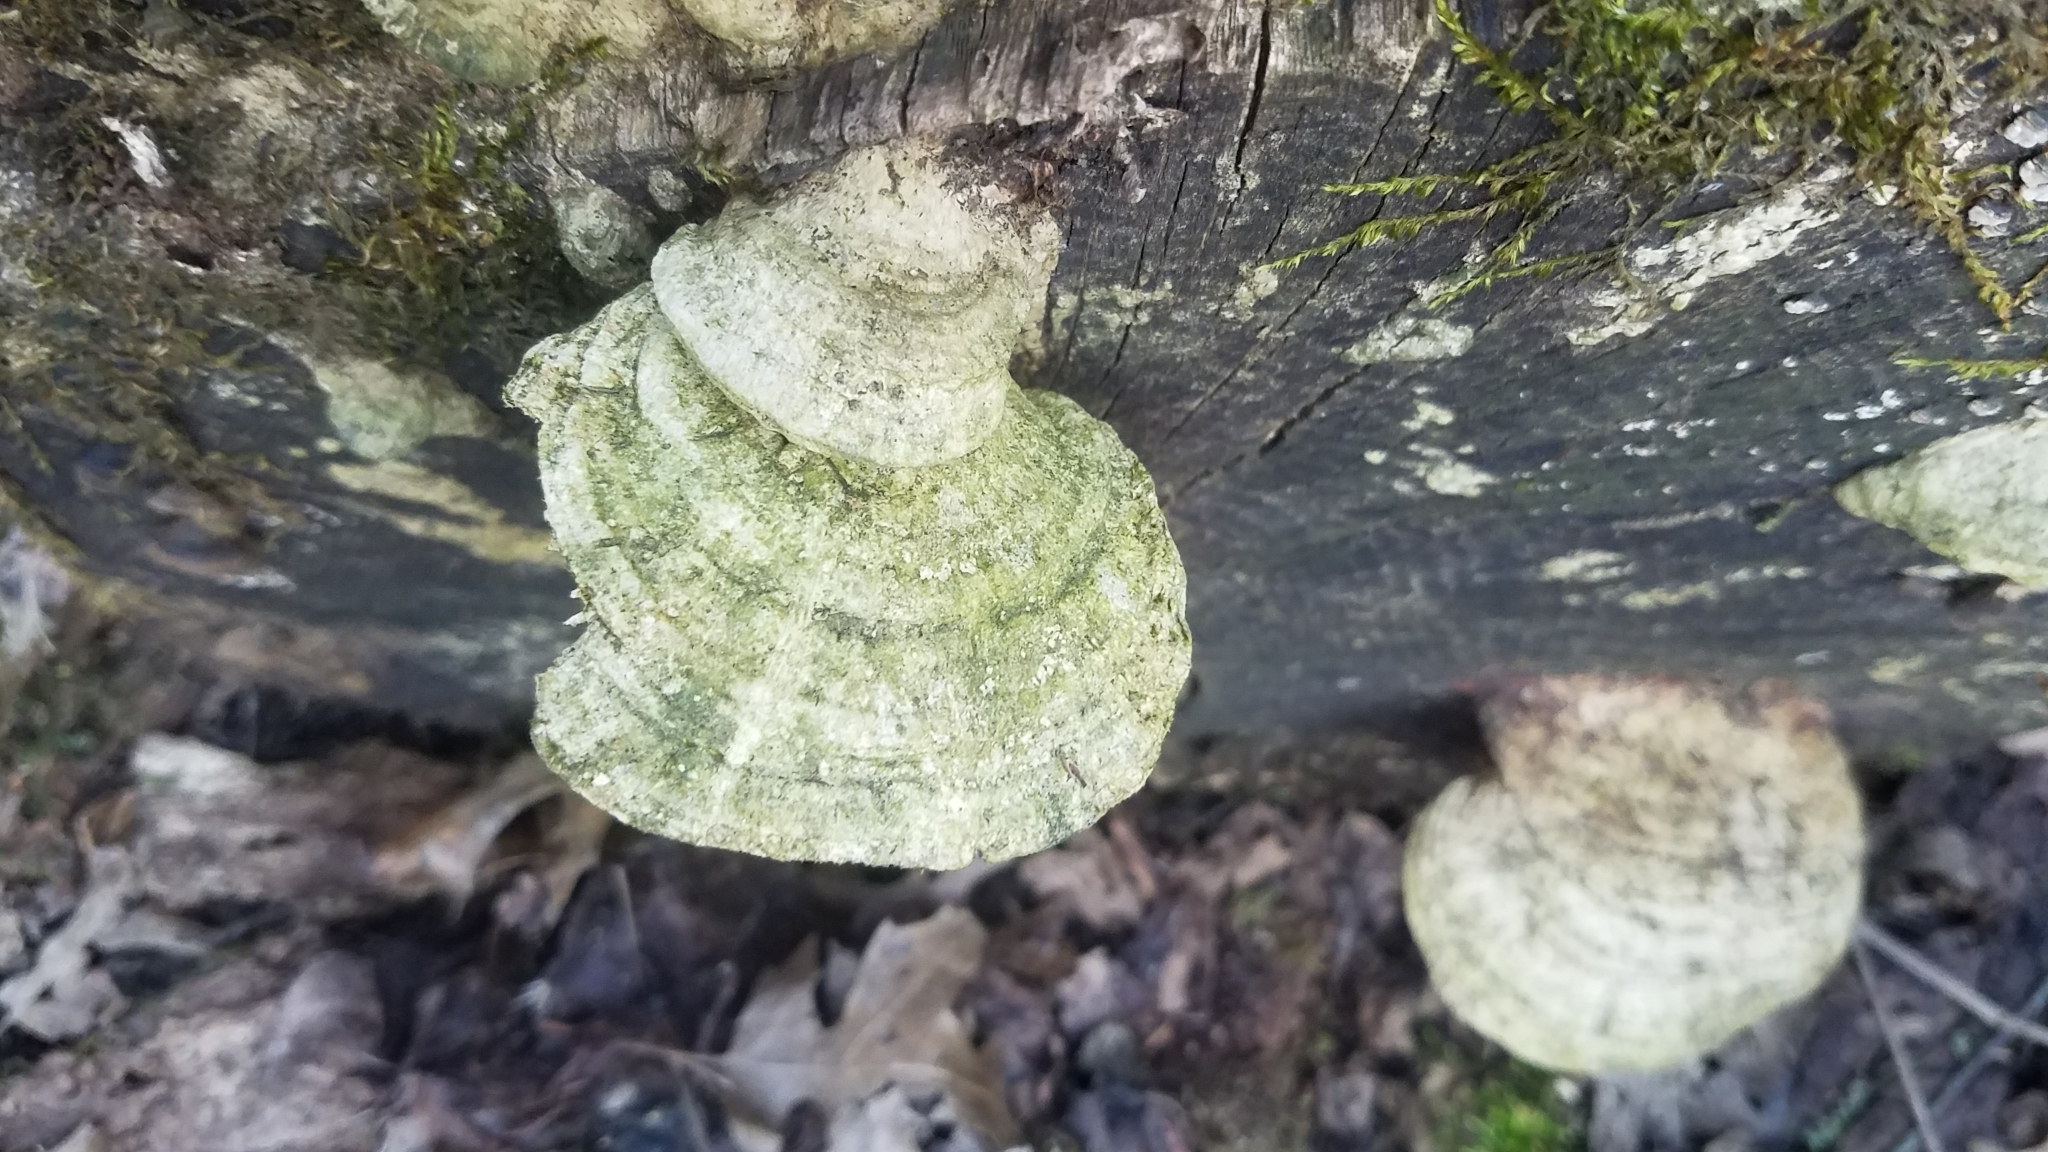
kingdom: Fungi
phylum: Basidiomycota
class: Agaricomycetes
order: Polyporales
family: Fomitopsidaceae
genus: Fomitopsis
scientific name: Fomitopsis
